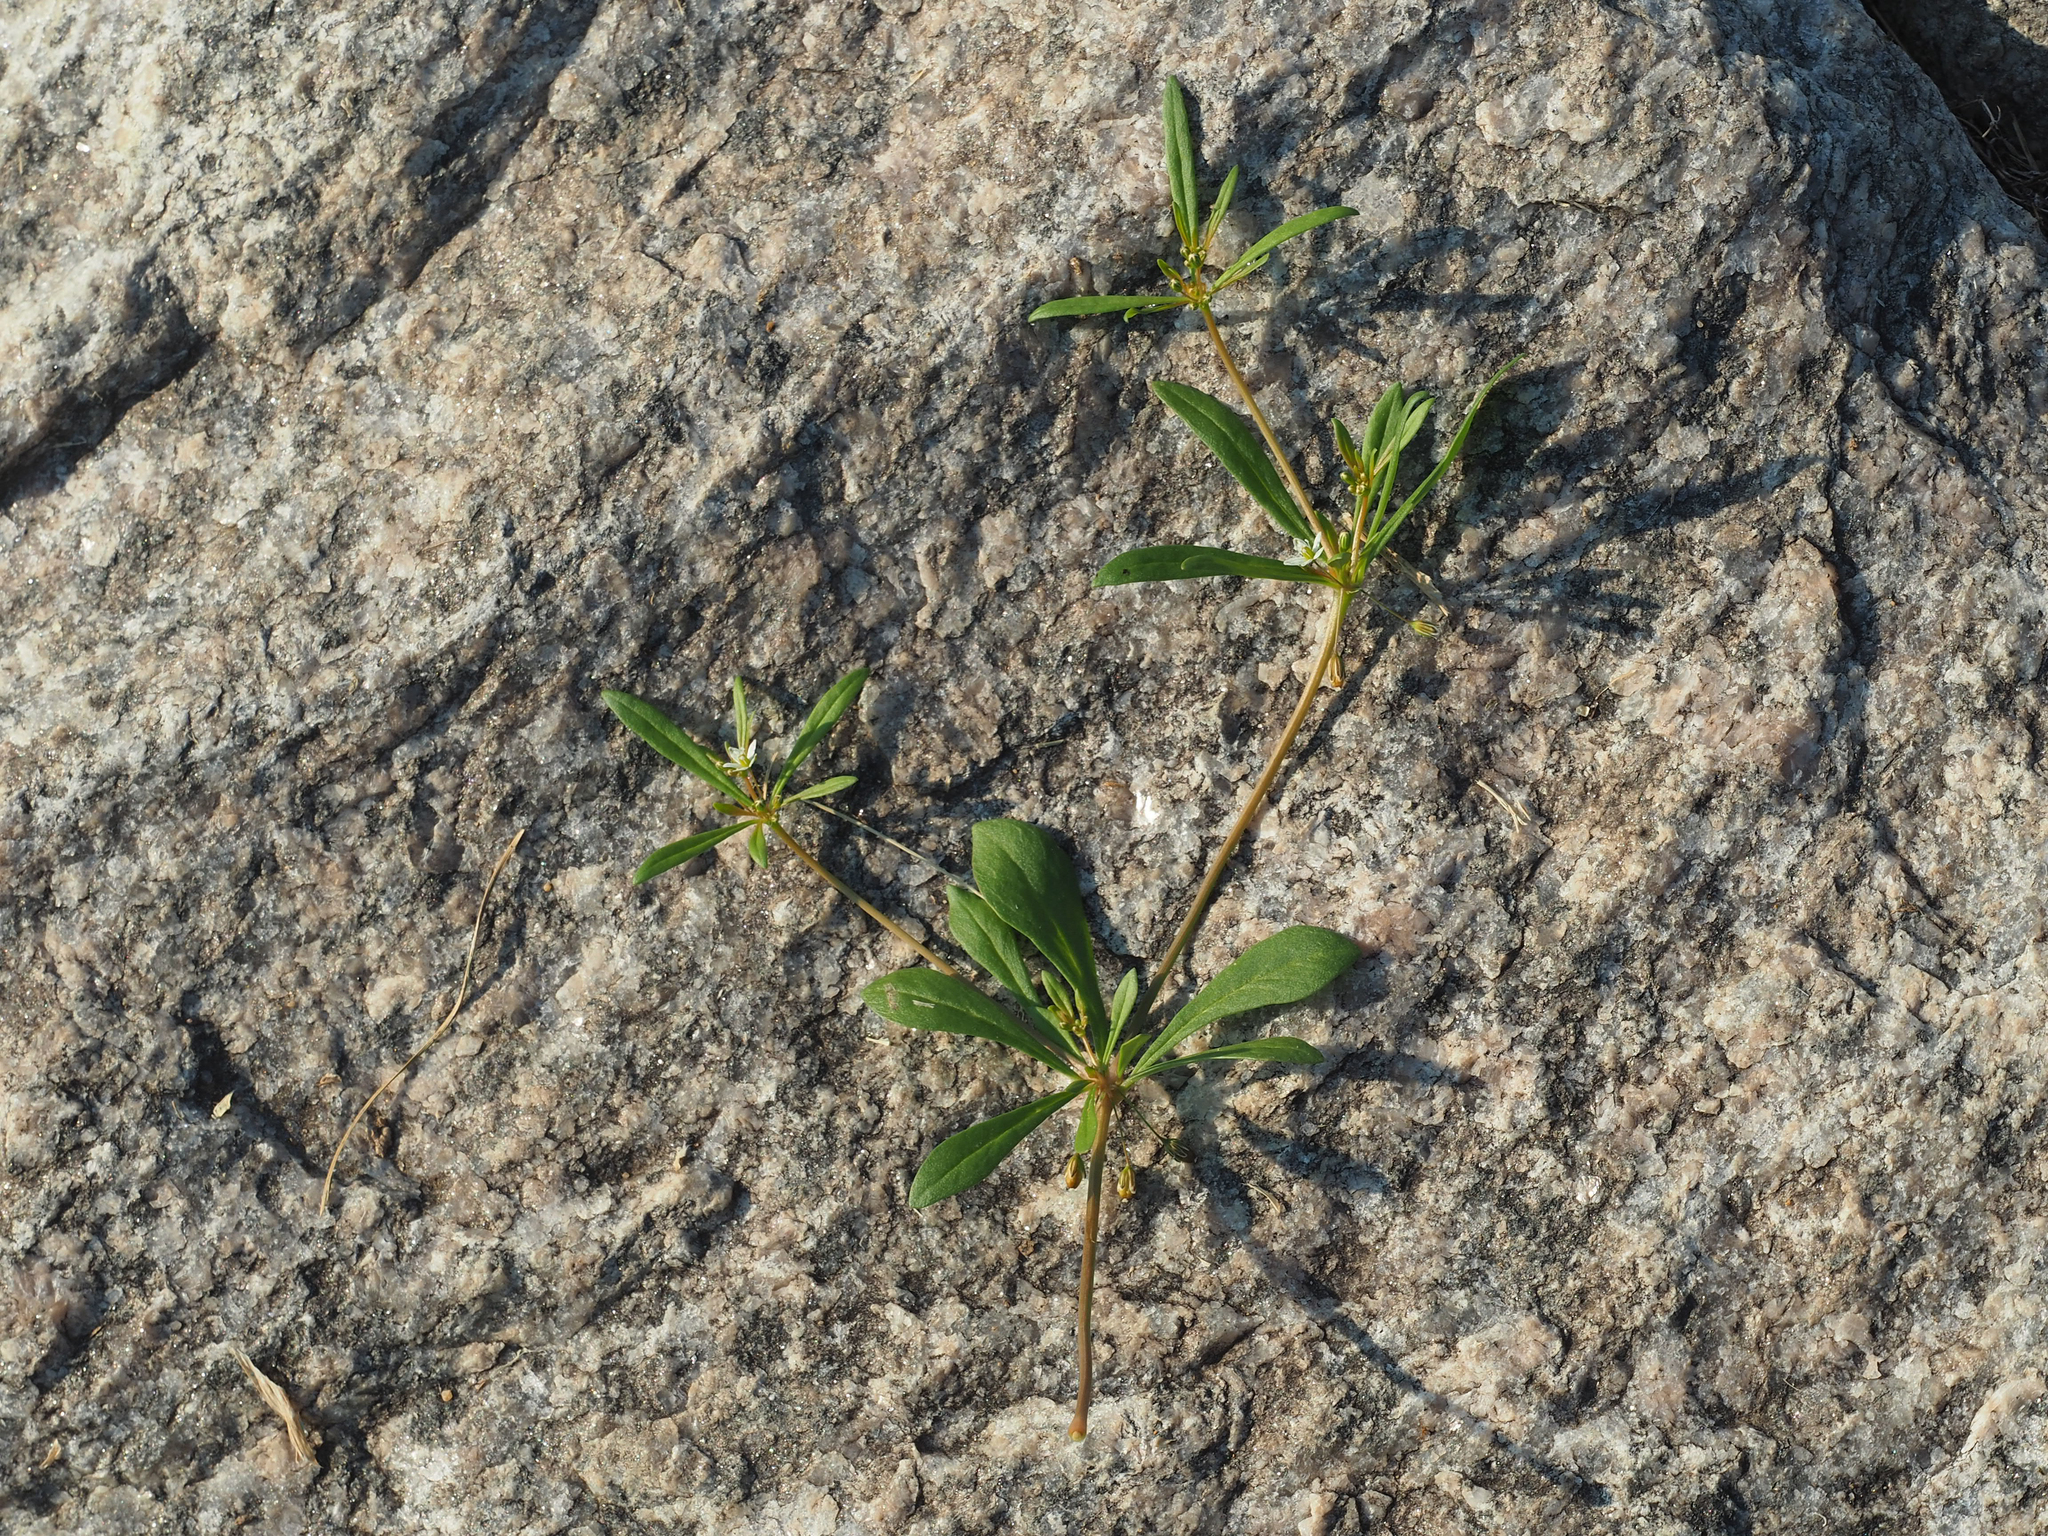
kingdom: Plantae
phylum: Tracheophyta
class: Magnoliopsida
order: Caryophyllales
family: Molluginaceae
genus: Mollugo
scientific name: Mollugo verticillata
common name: Green carpetweed
